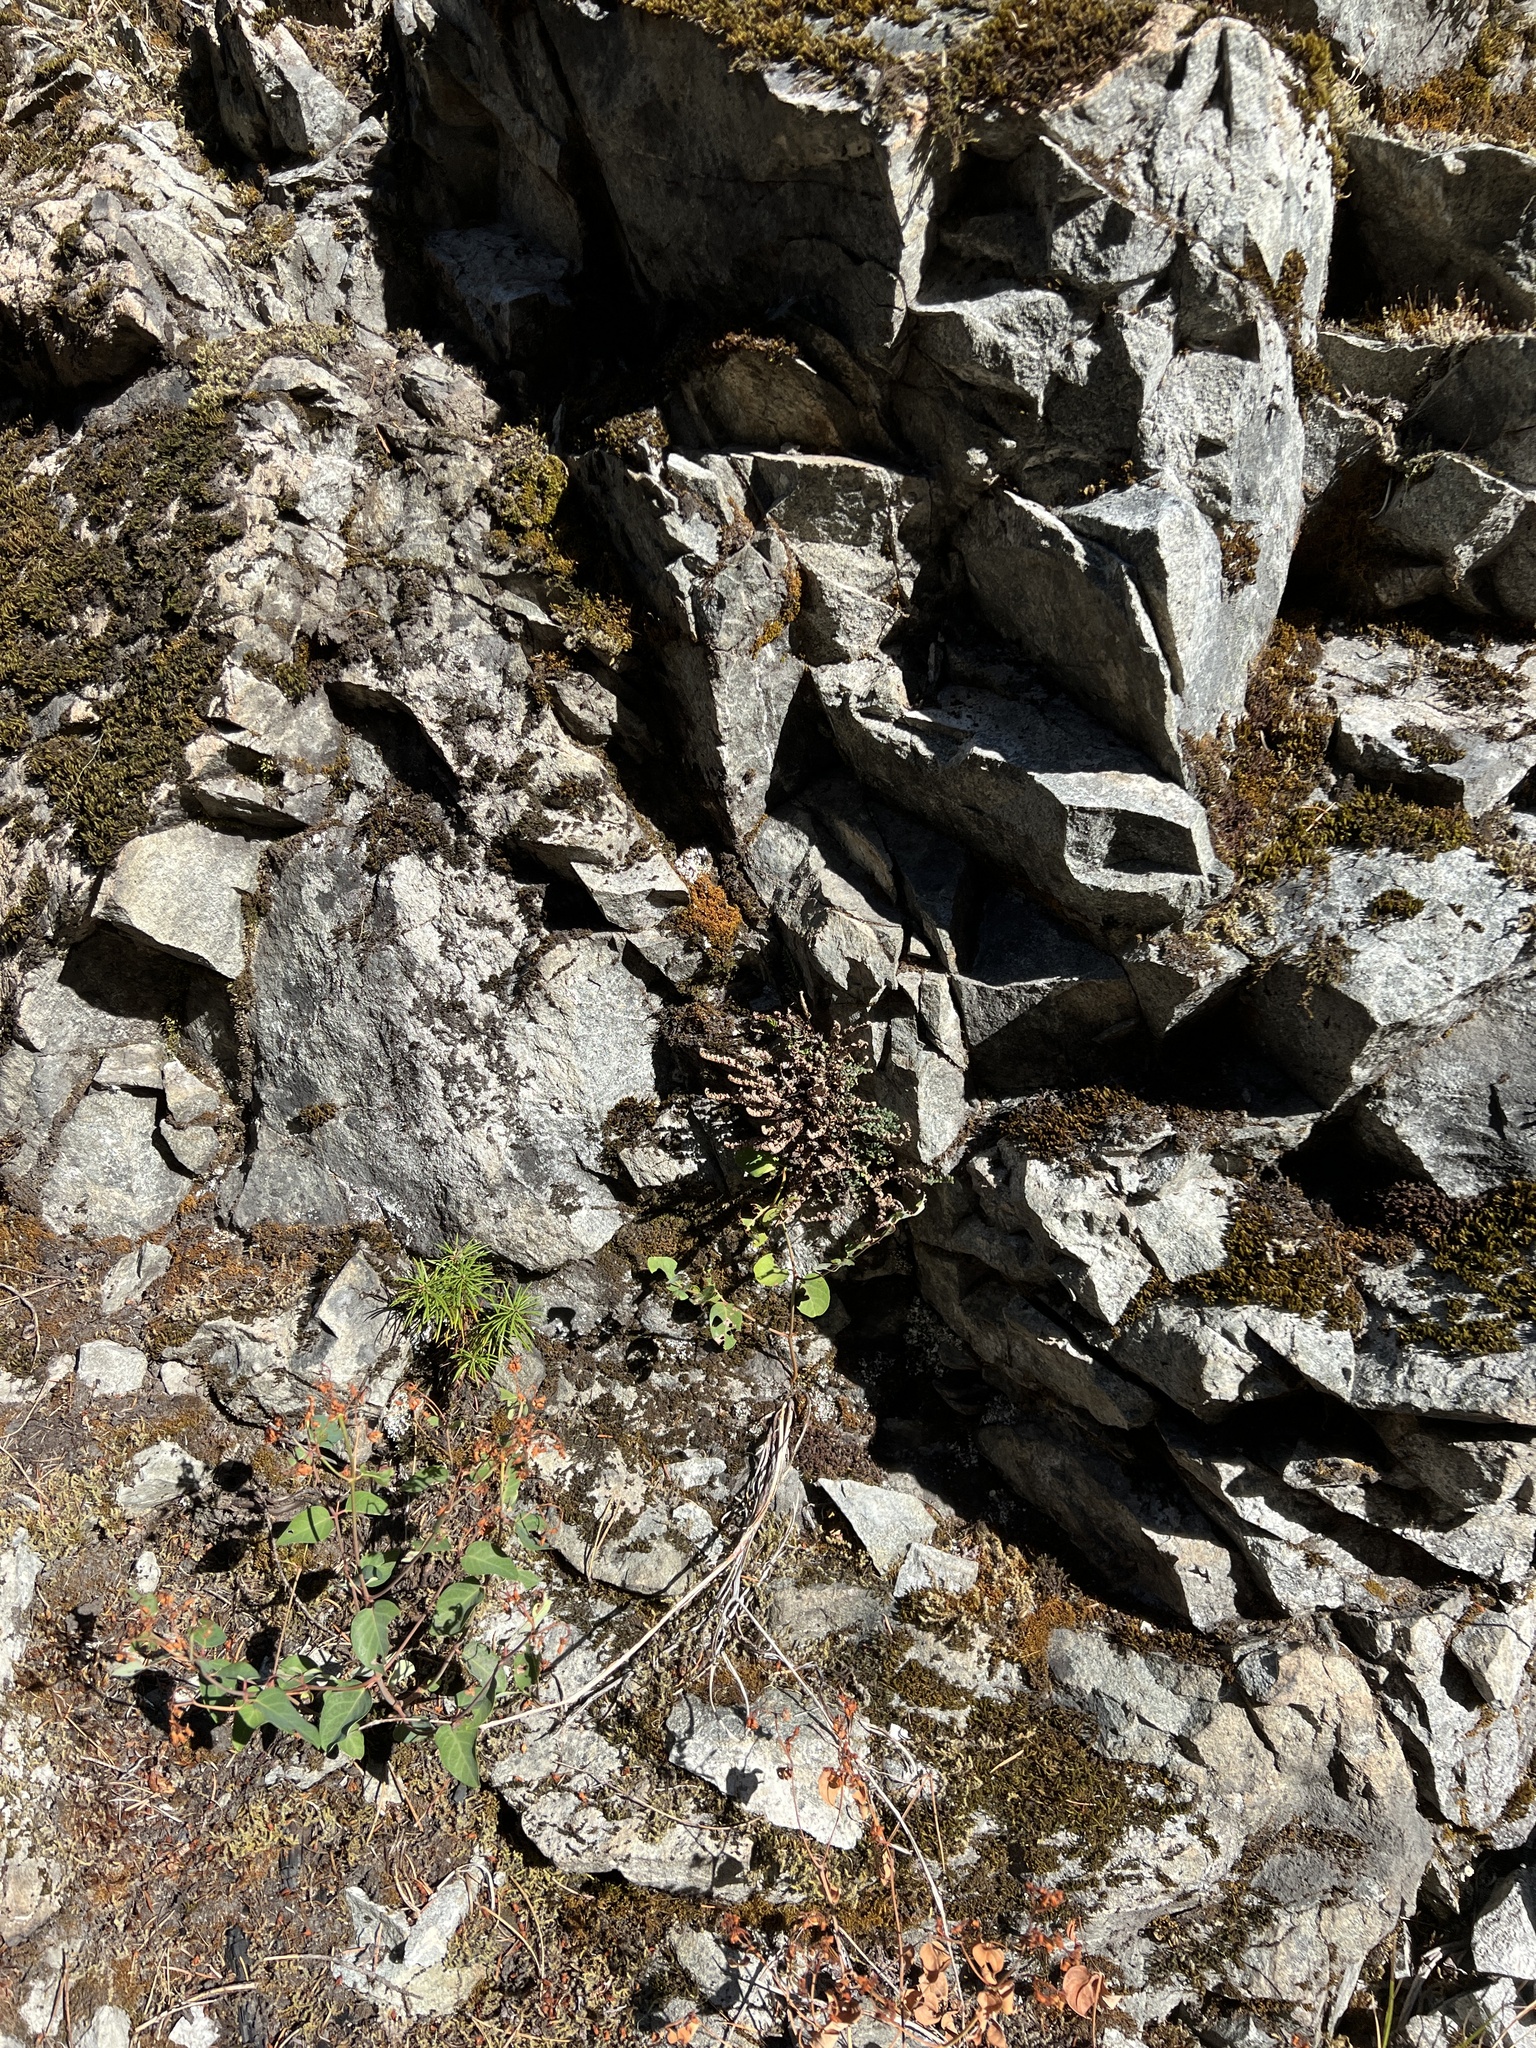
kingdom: Plantae
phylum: Tracheophyta
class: Polypodiopsida
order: Polypodiales
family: Pteridaceae
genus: Myriopteris
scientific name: Myriopteris gracillima
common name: Lace fern
